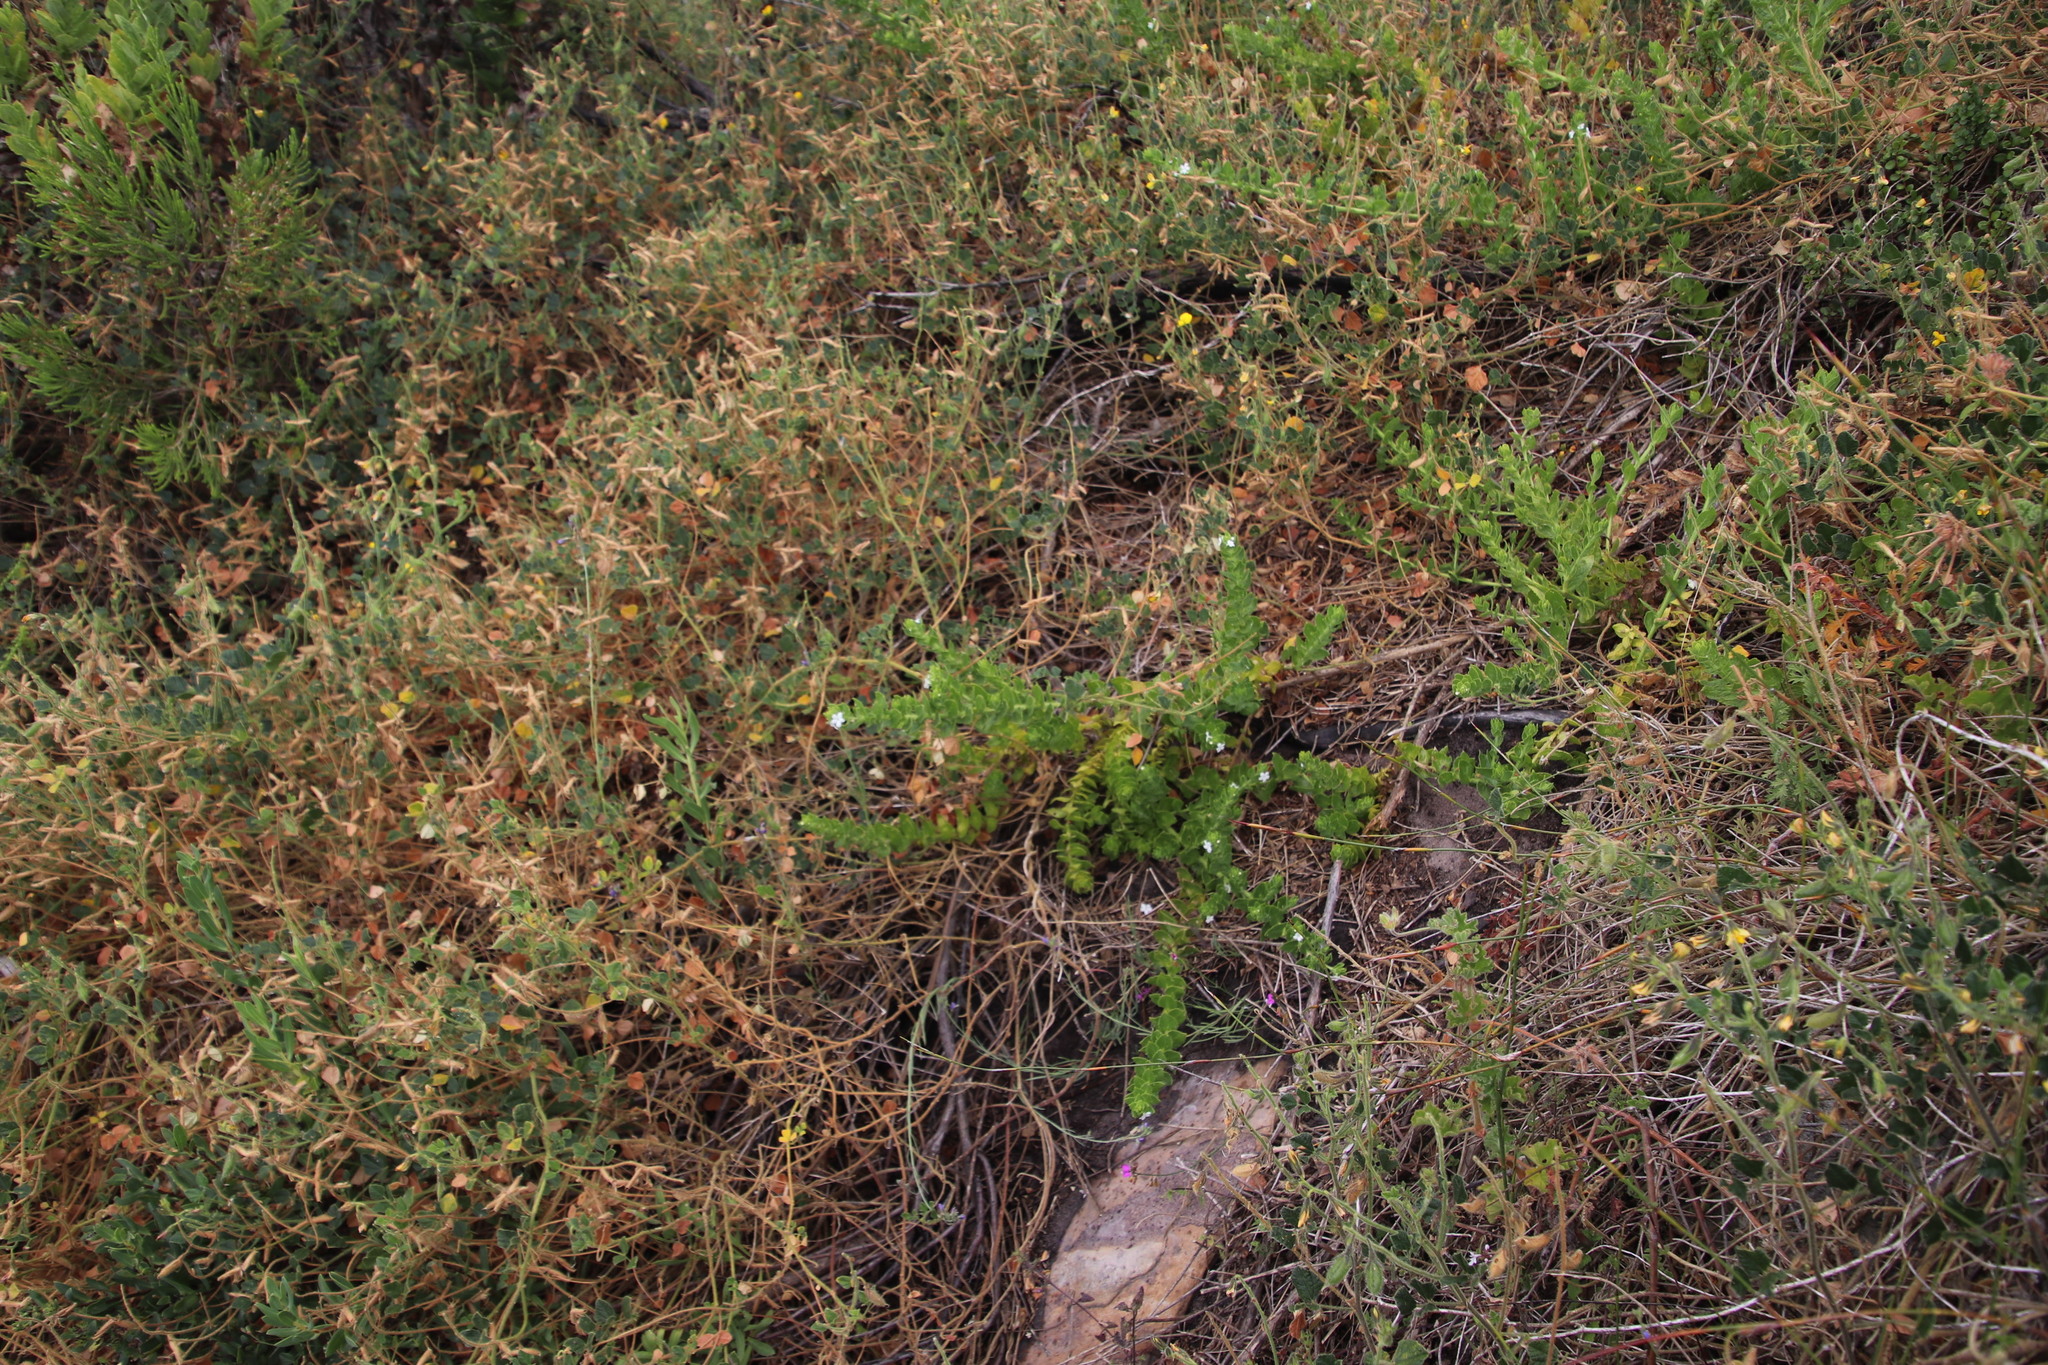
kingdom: Plantae
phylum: Tracheophyta
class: Magnoliopsida
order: Lamiales
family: Scrophulariaceae
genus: Oftia
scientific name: Oftia africana
